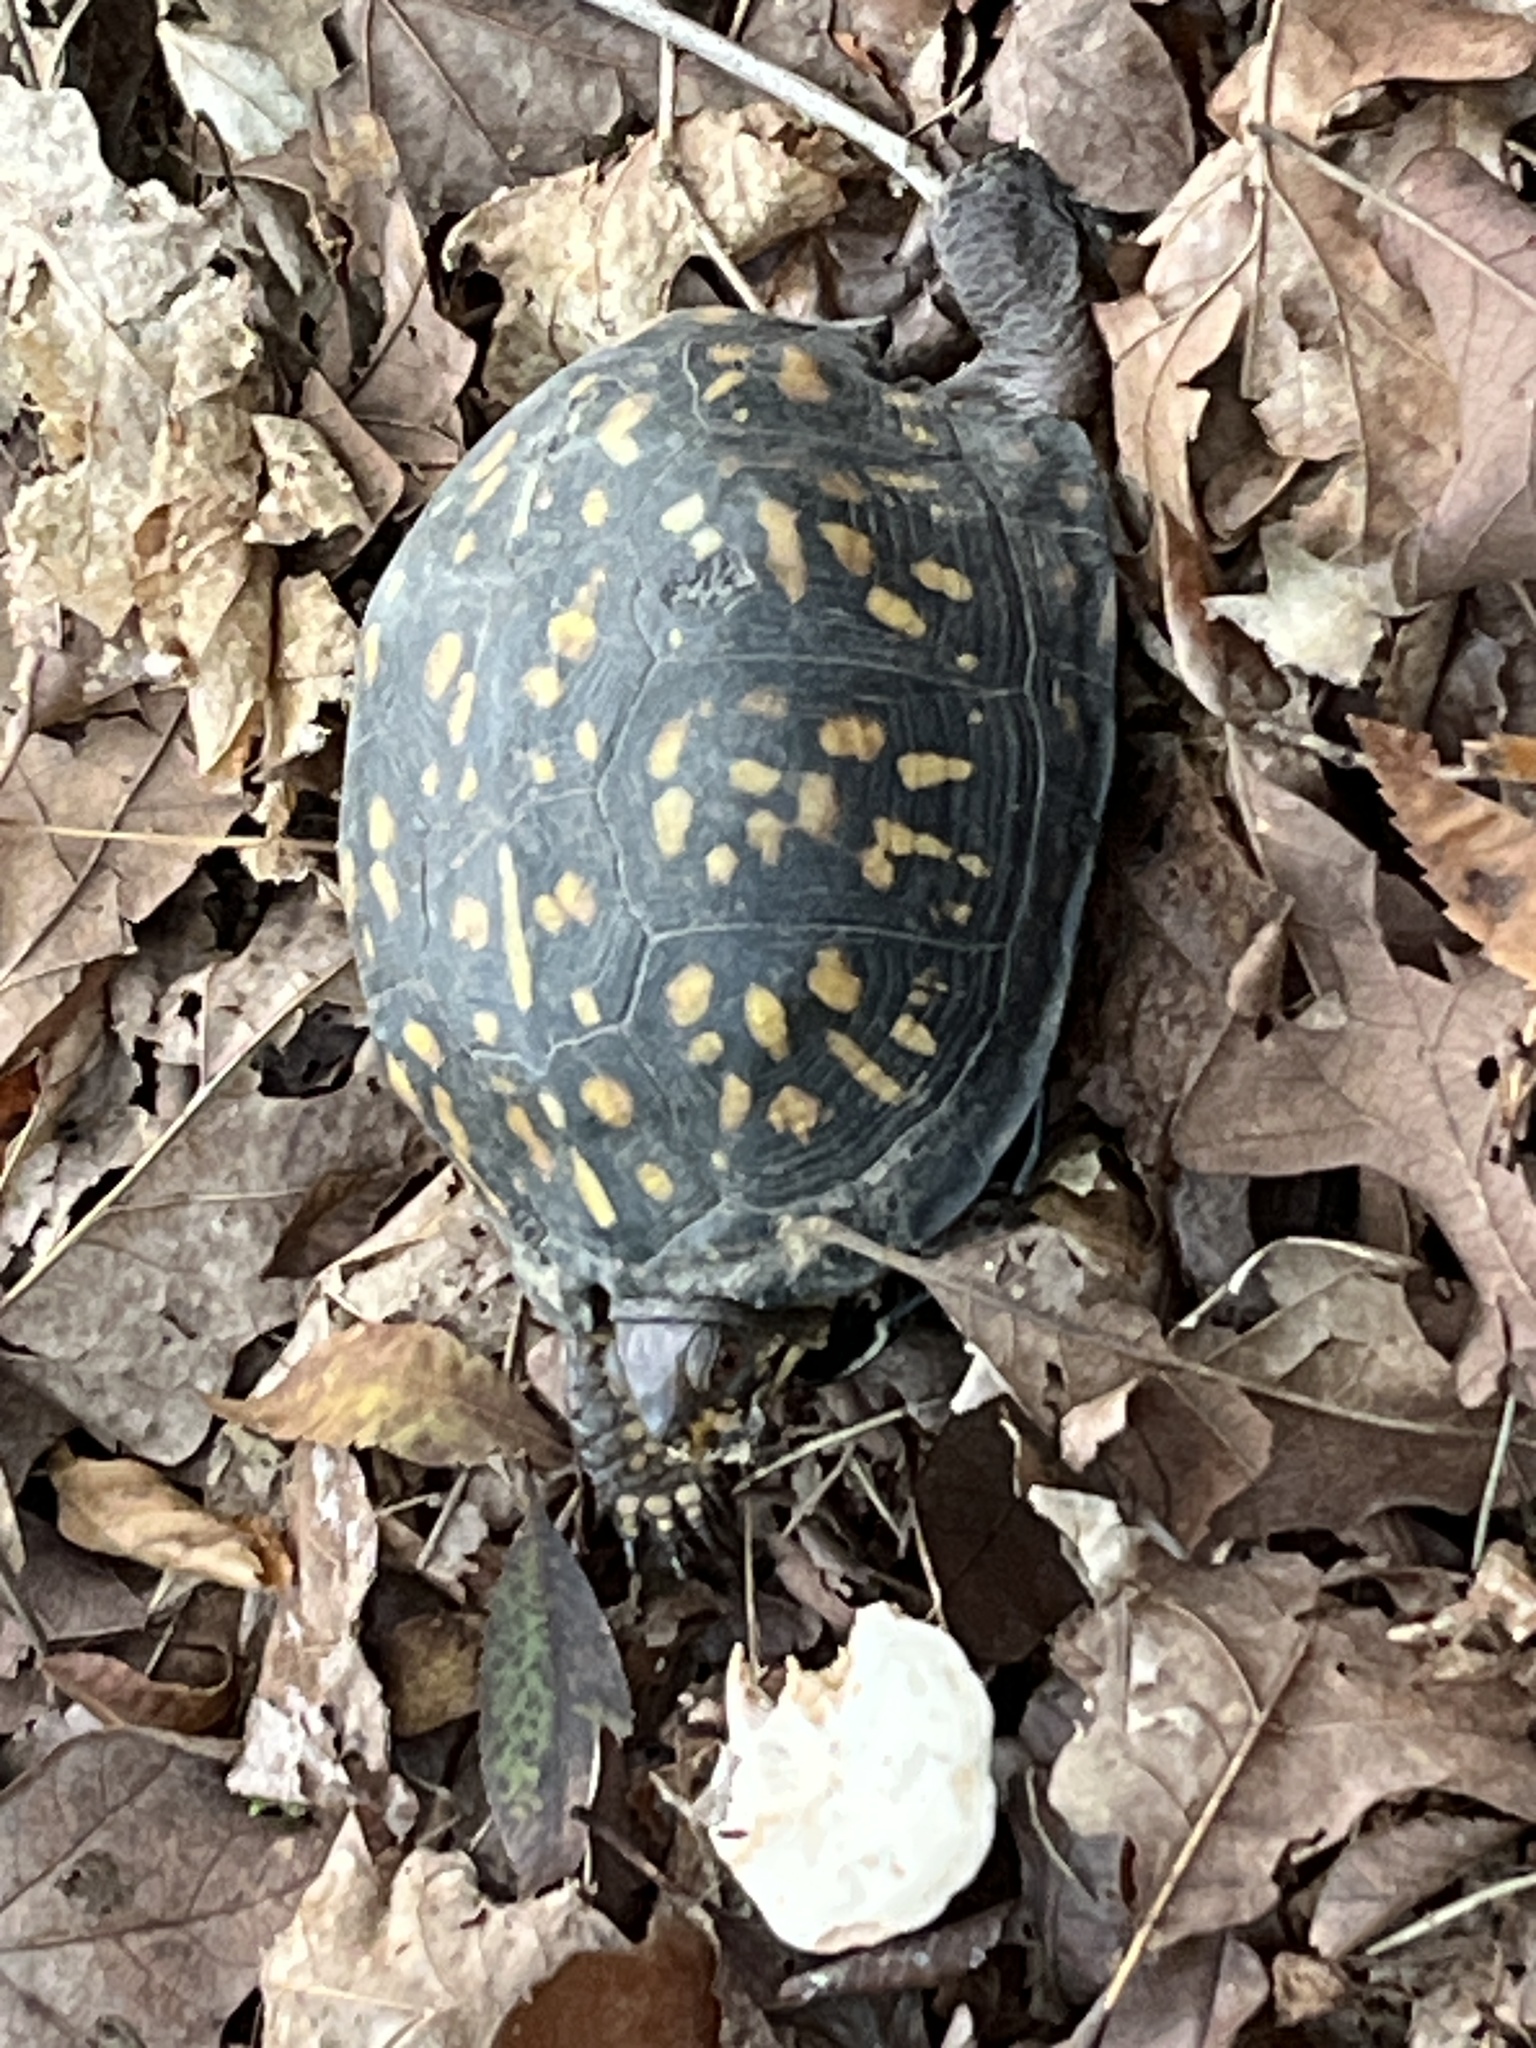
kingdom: Animalia
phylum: Chordata
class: Testudines
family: Emydidae
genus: Terrapene
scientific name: Terrapene carolina
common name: Common box turtle
